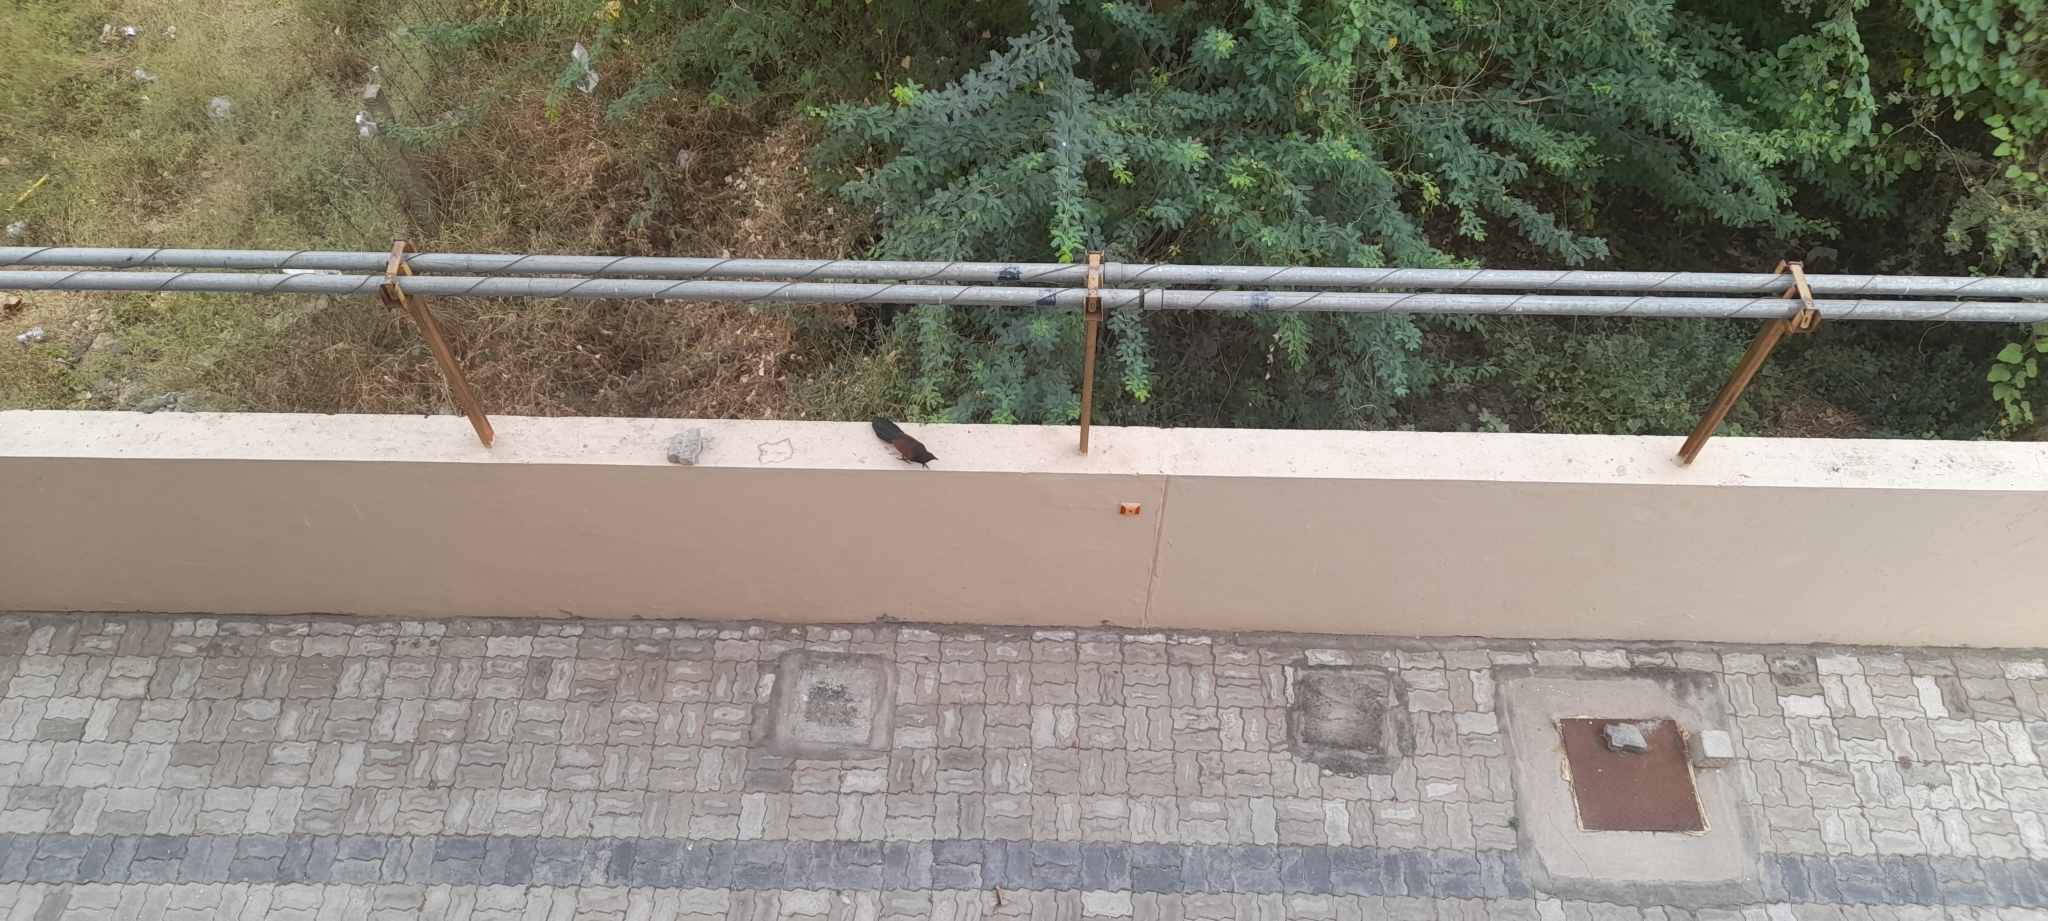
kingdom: Animalia
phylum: Chordata
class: Aves
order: Cuculiformes
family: Cuculidae
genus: Centropus
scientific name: Centropus sinensis
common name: Greater coucal
